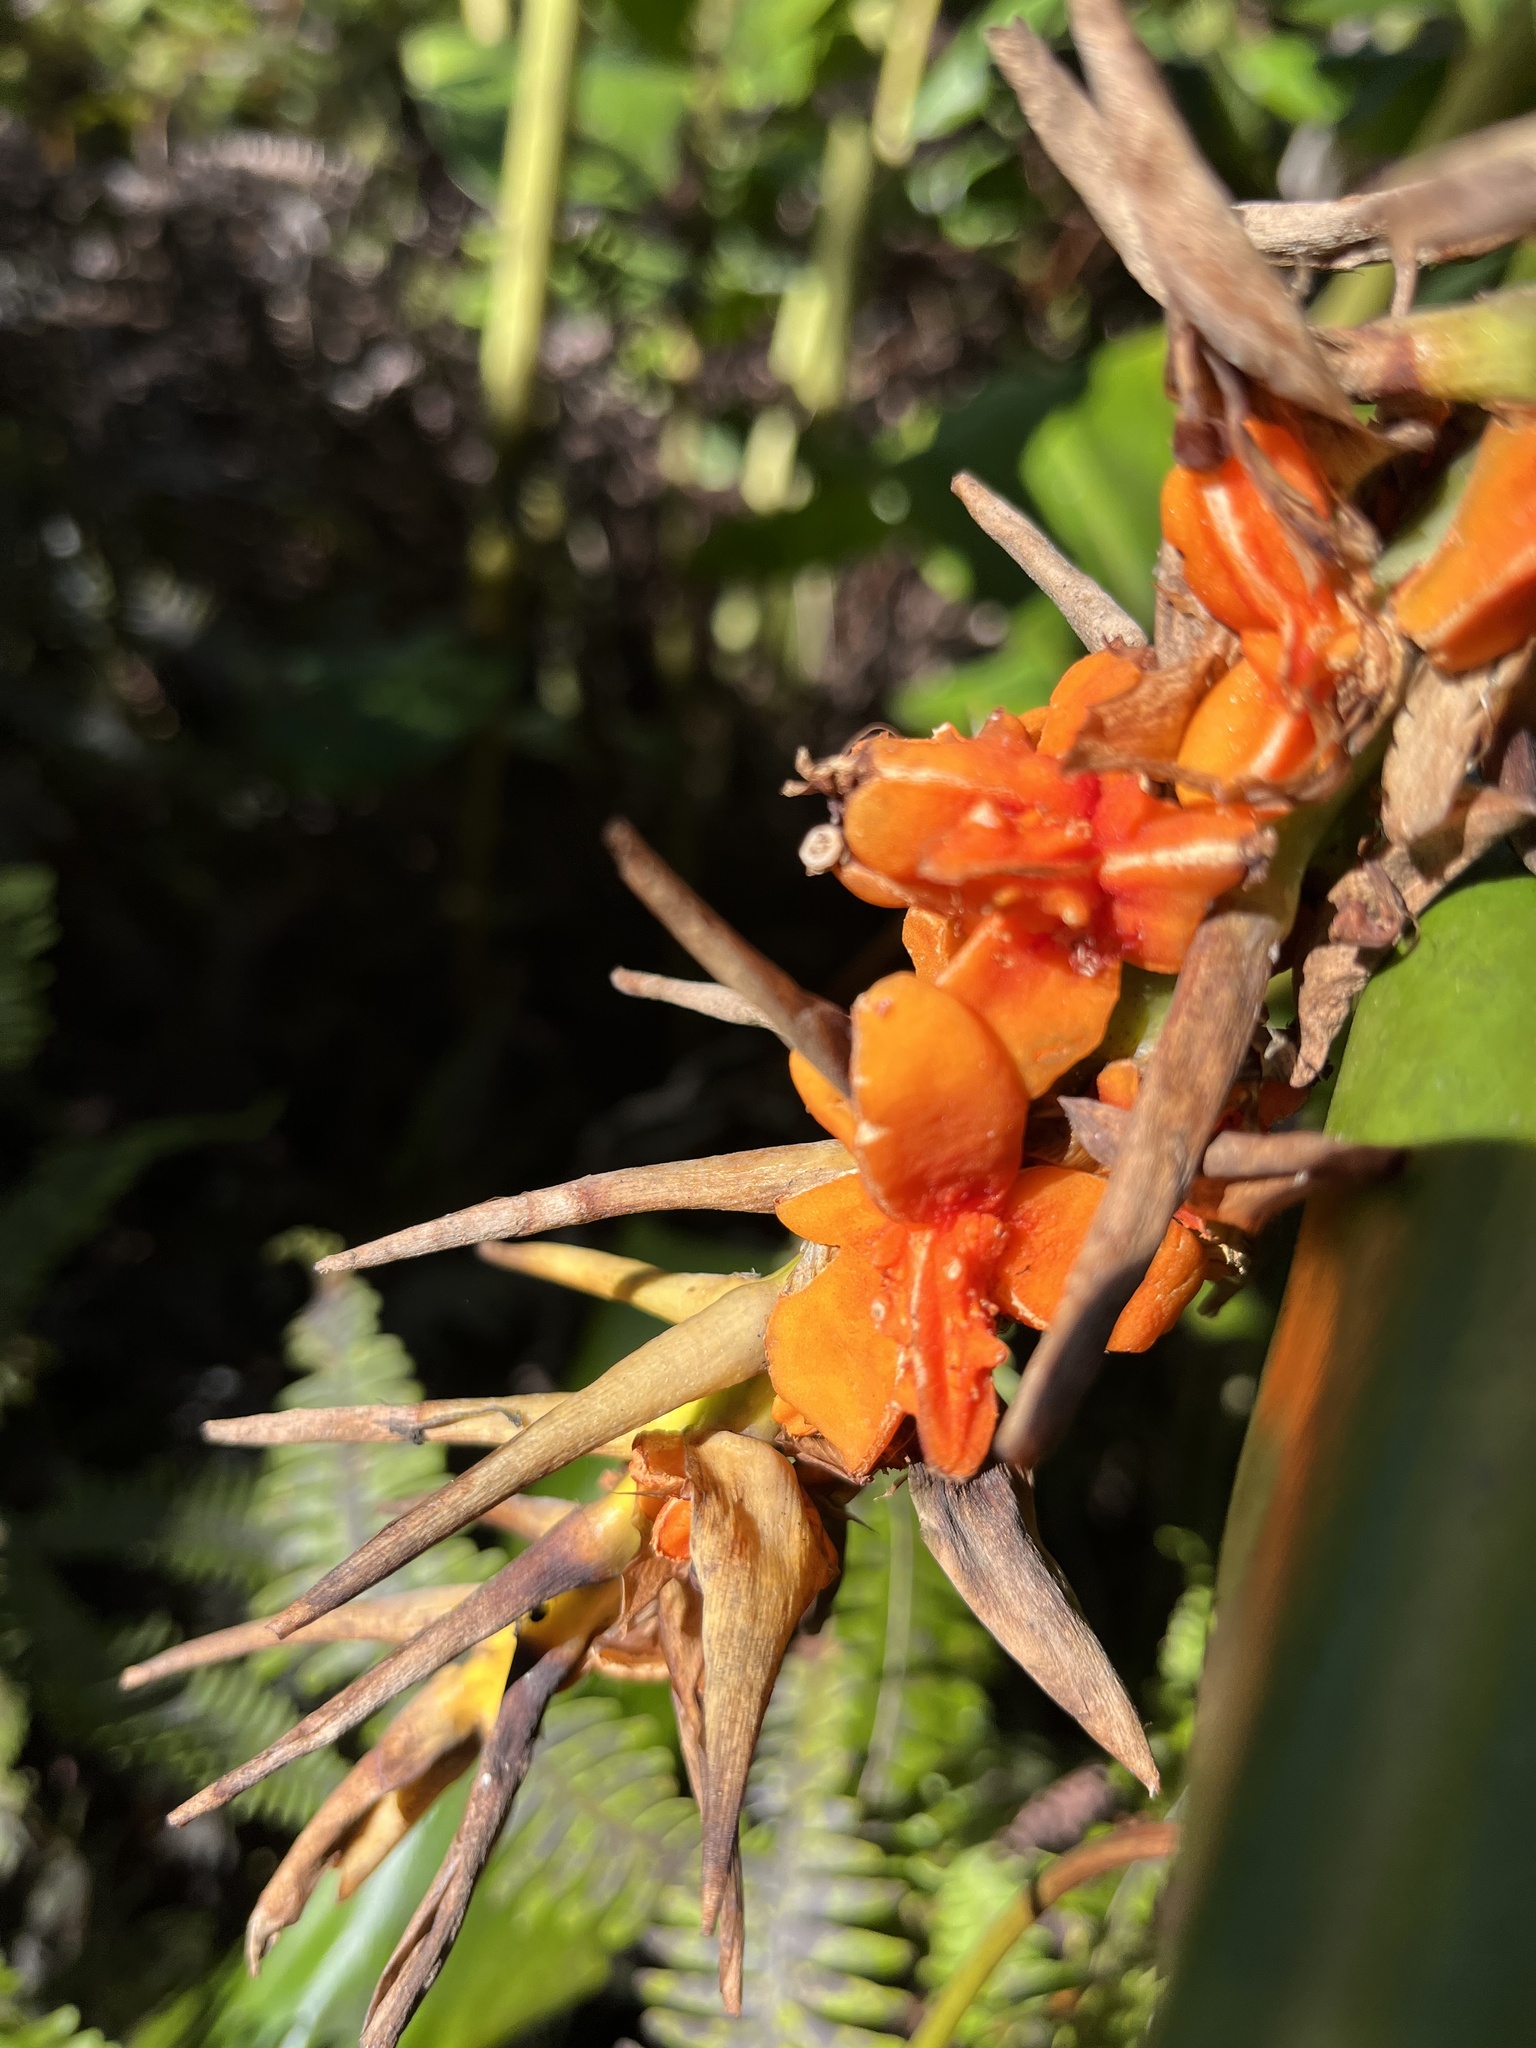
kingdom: Plantae
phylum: Tracheophyta
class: Liliopsida
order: Zingiberales
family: Zingiberaceae
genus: Hedychium
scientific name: Hedychium gardnerianum
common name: Himalayan ginger
